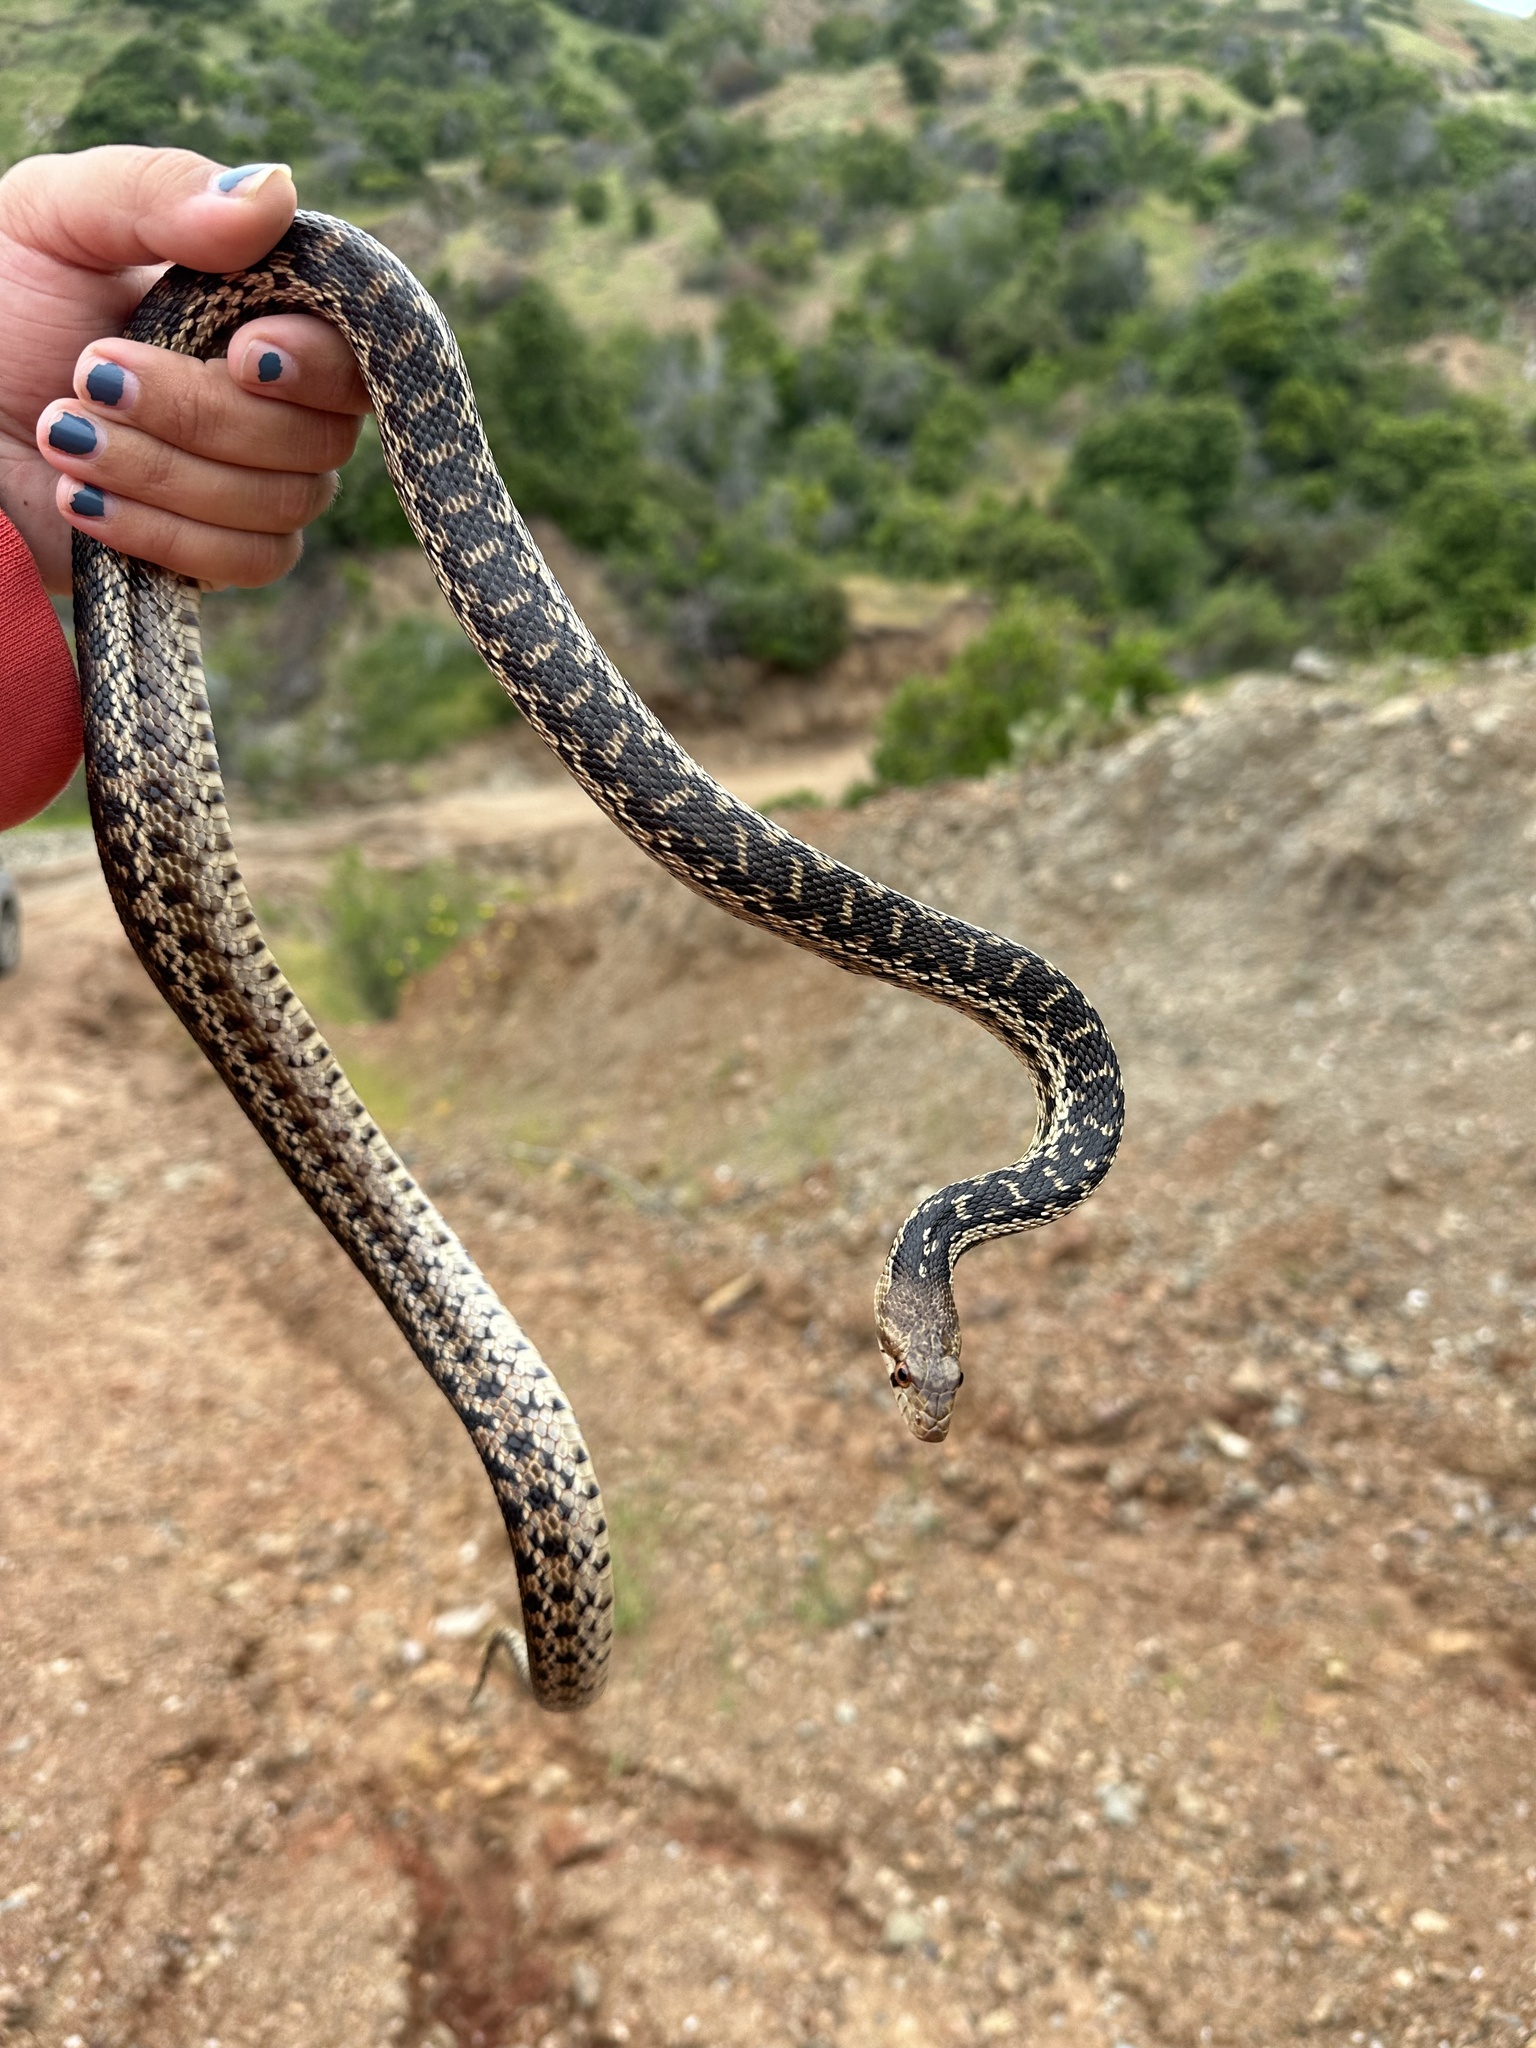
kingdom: Animalia
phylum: Chordata
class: Squamata
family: Colubridae
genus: Pituophis
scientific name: Pituophis catenifer
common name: Gopher snake
